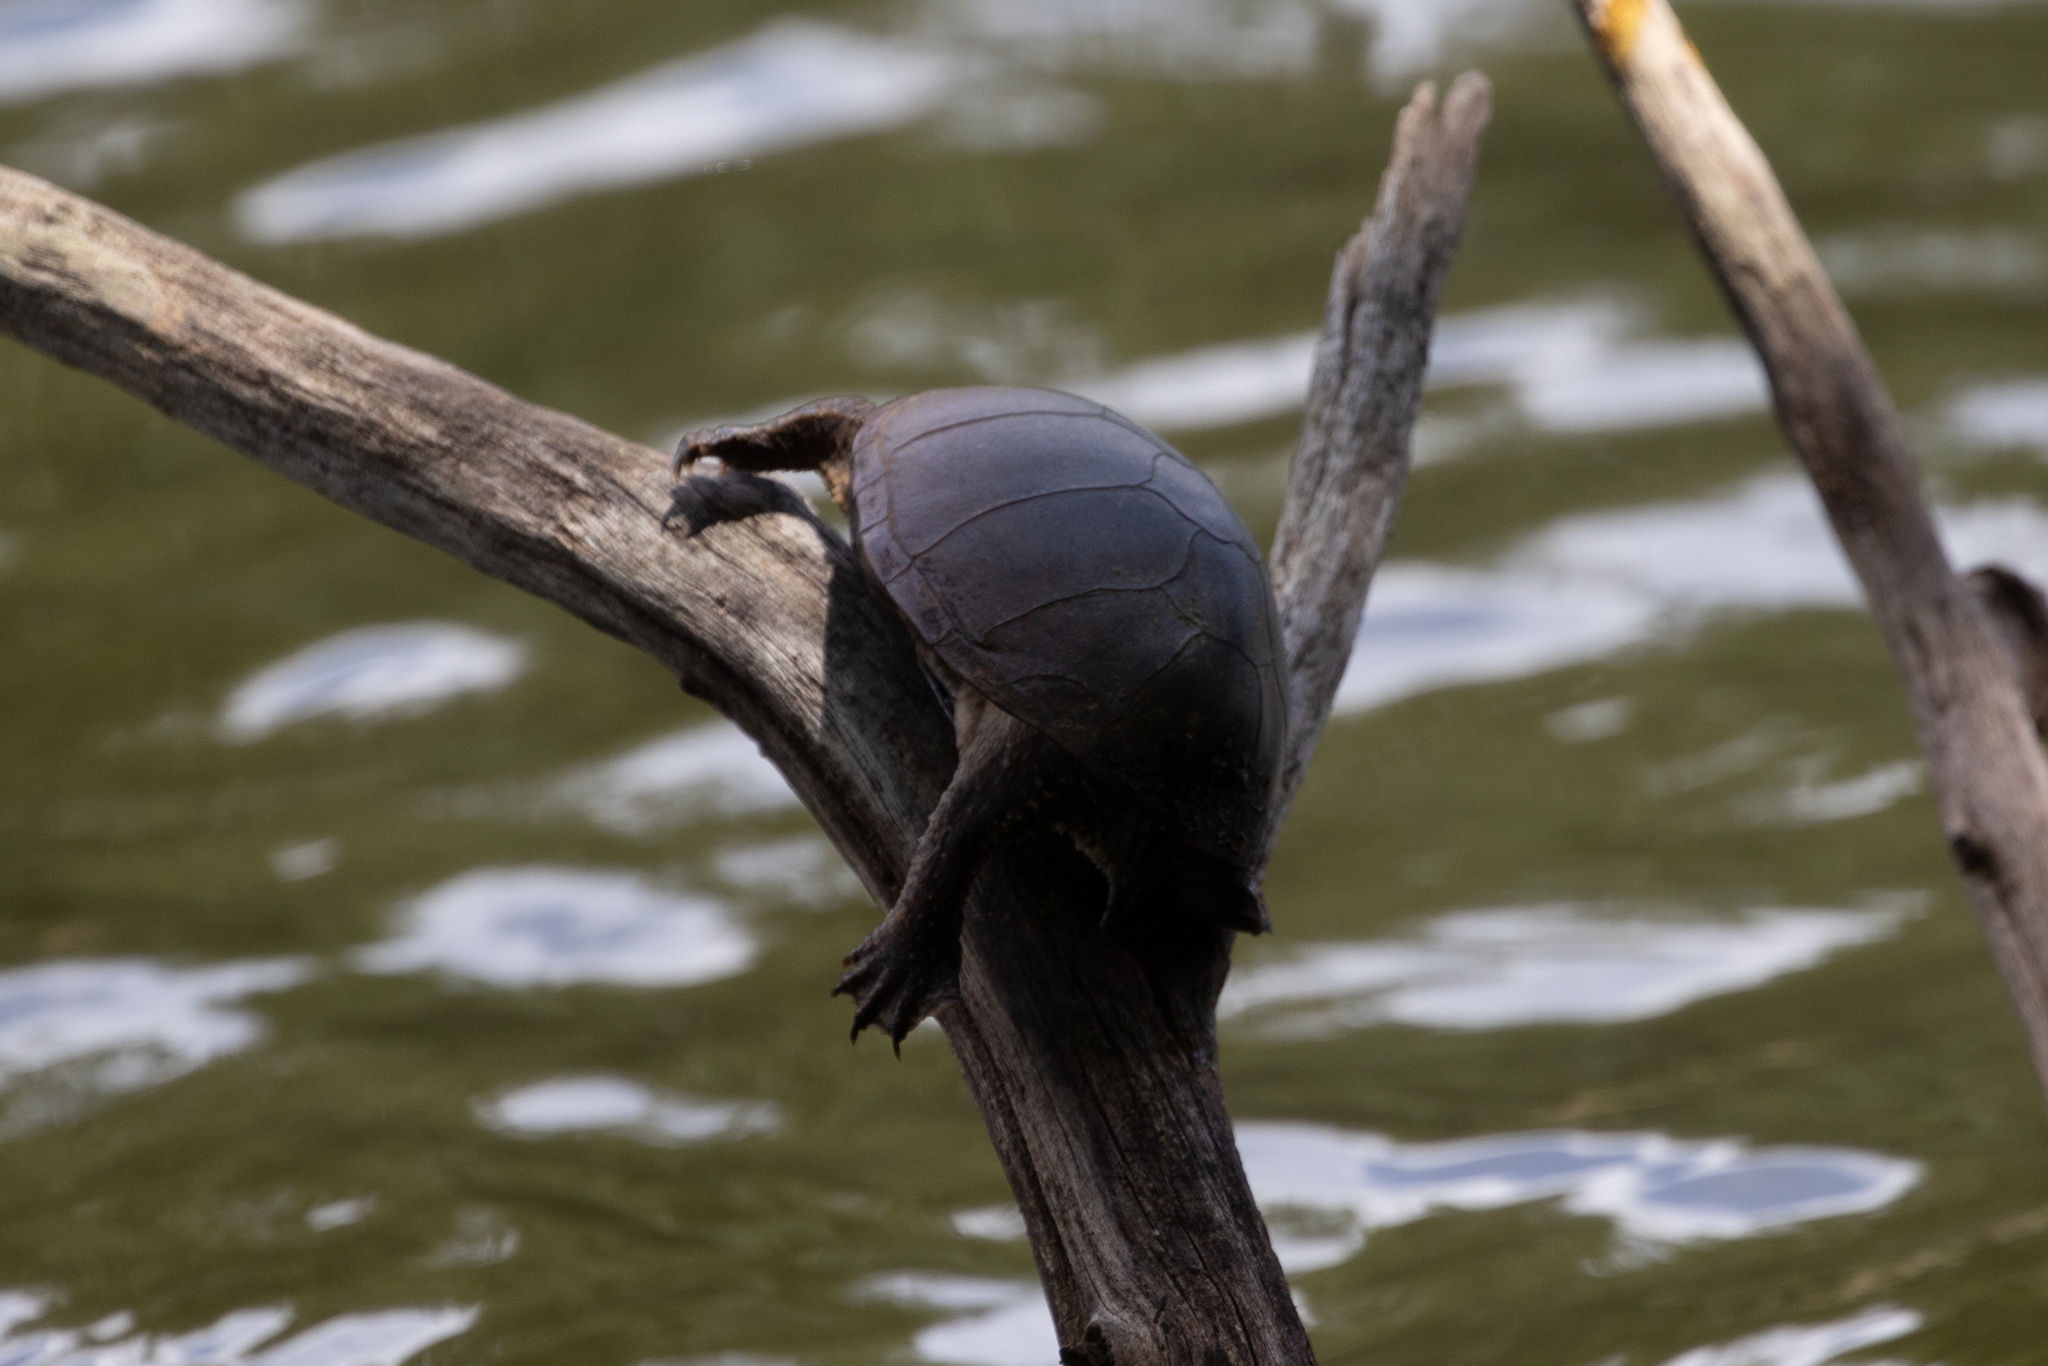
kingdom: Animalia
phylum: Chordata
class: Testudines
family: Kinosternidae
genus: Sternotherus
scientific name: Sternotherus odoratus
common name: Common musk turtle
